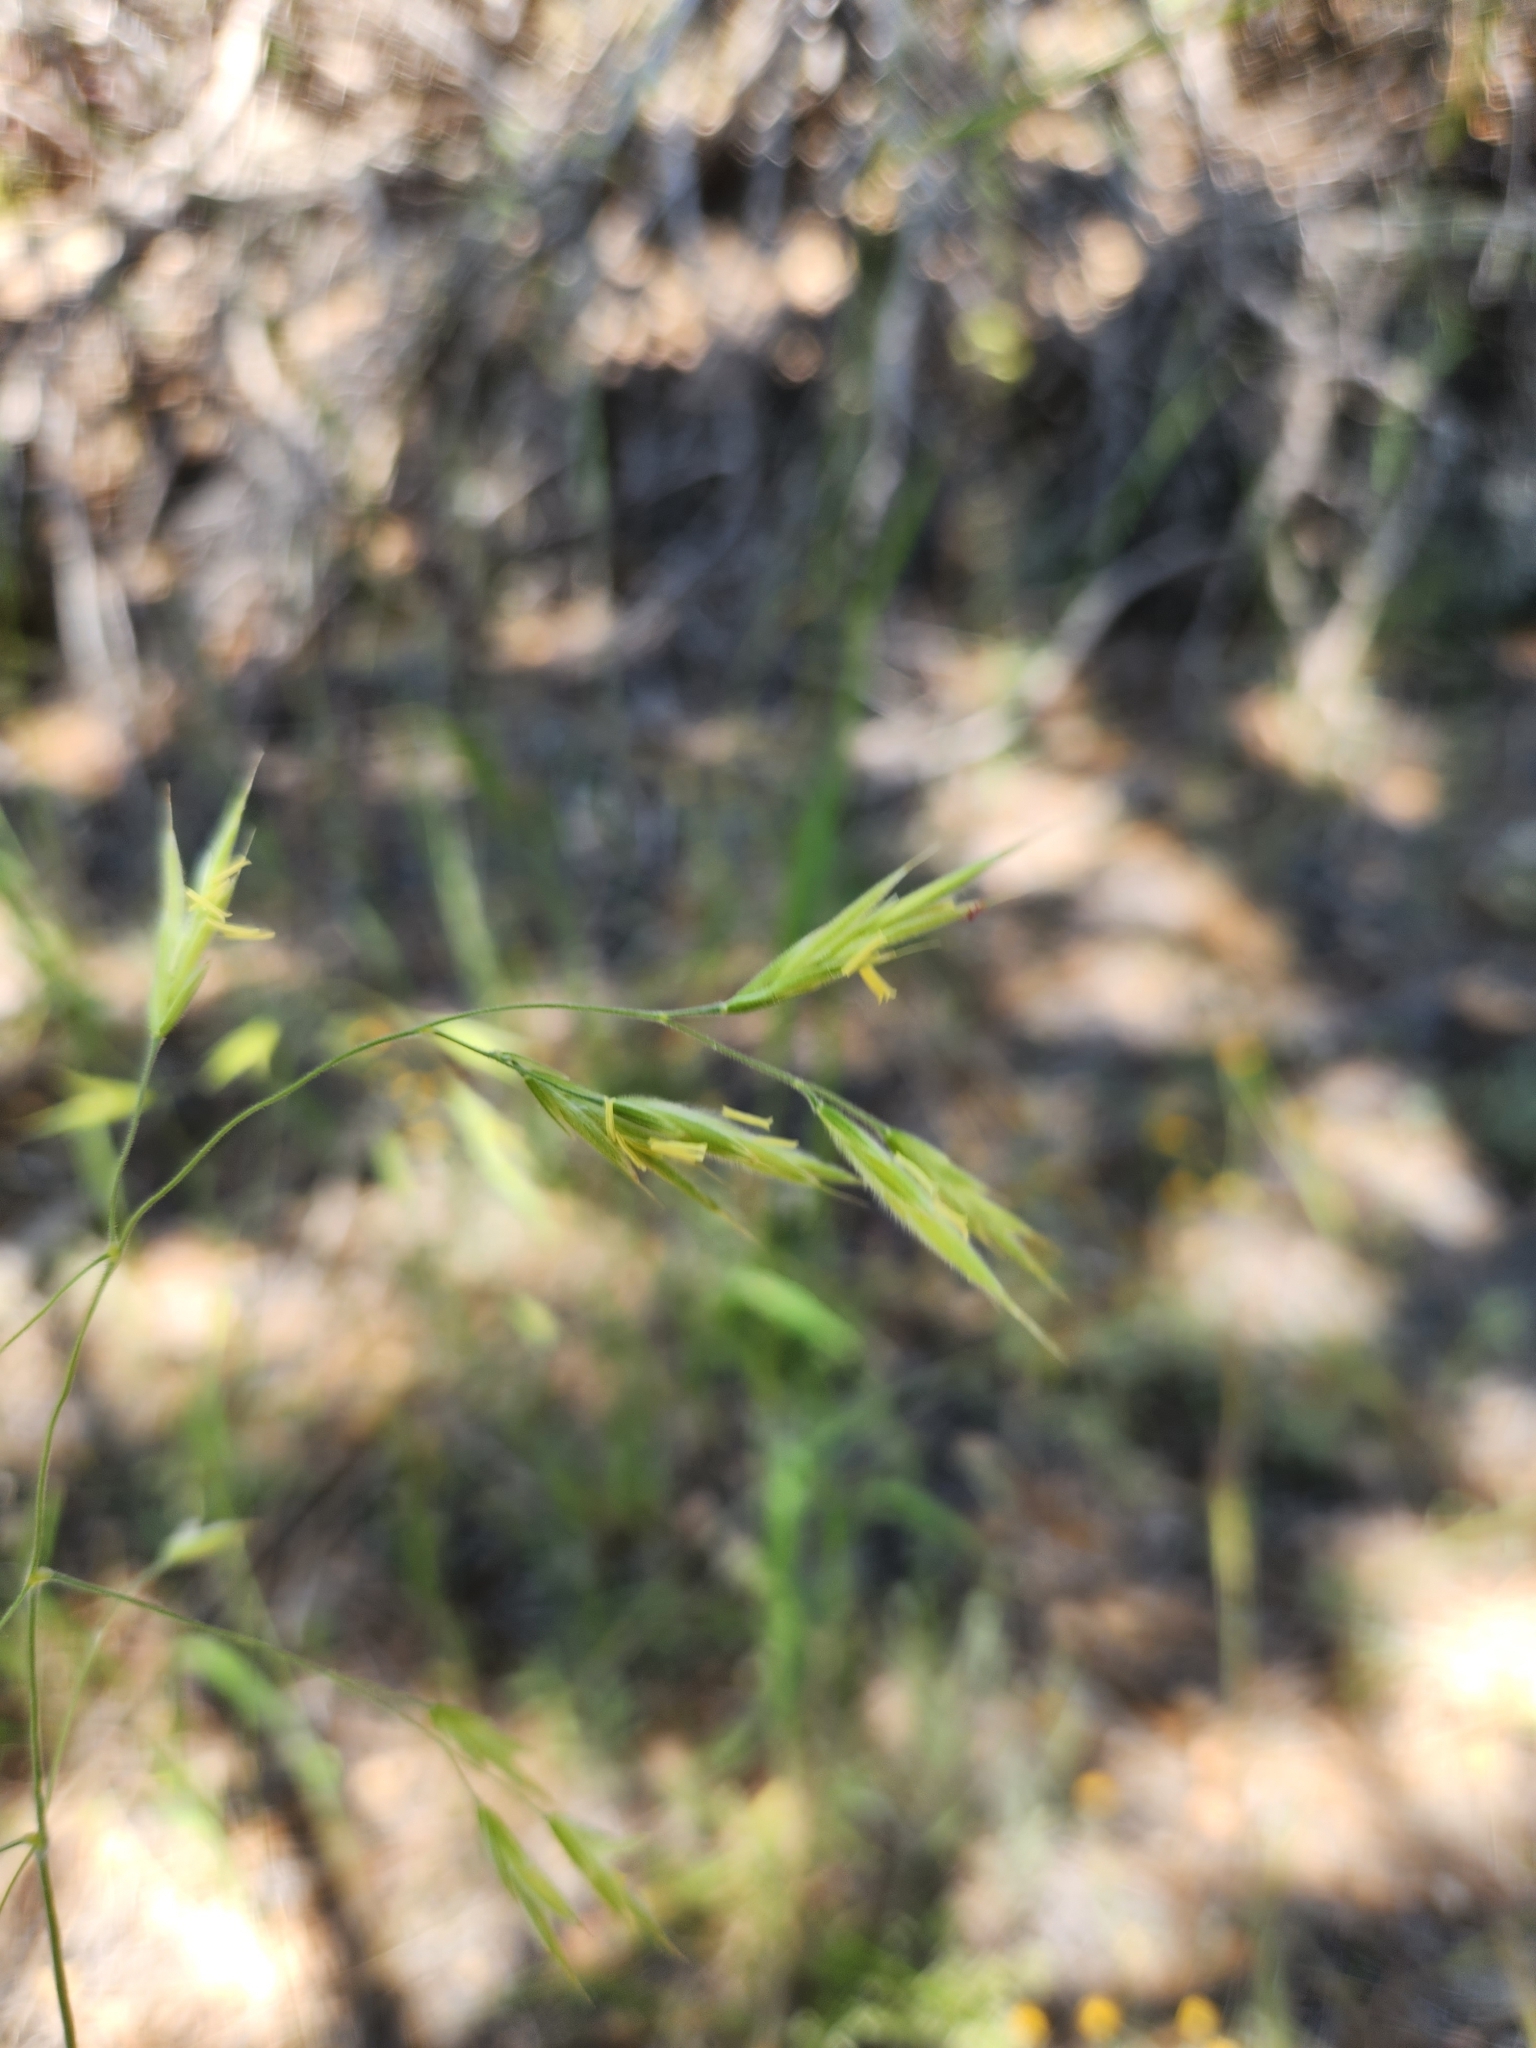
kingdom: Plantae
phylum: Tracheophyta
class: Liliopsida
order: Poales
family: Poaceae
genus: Bromus
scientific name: Bromus carinatus
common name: Mountain brome
